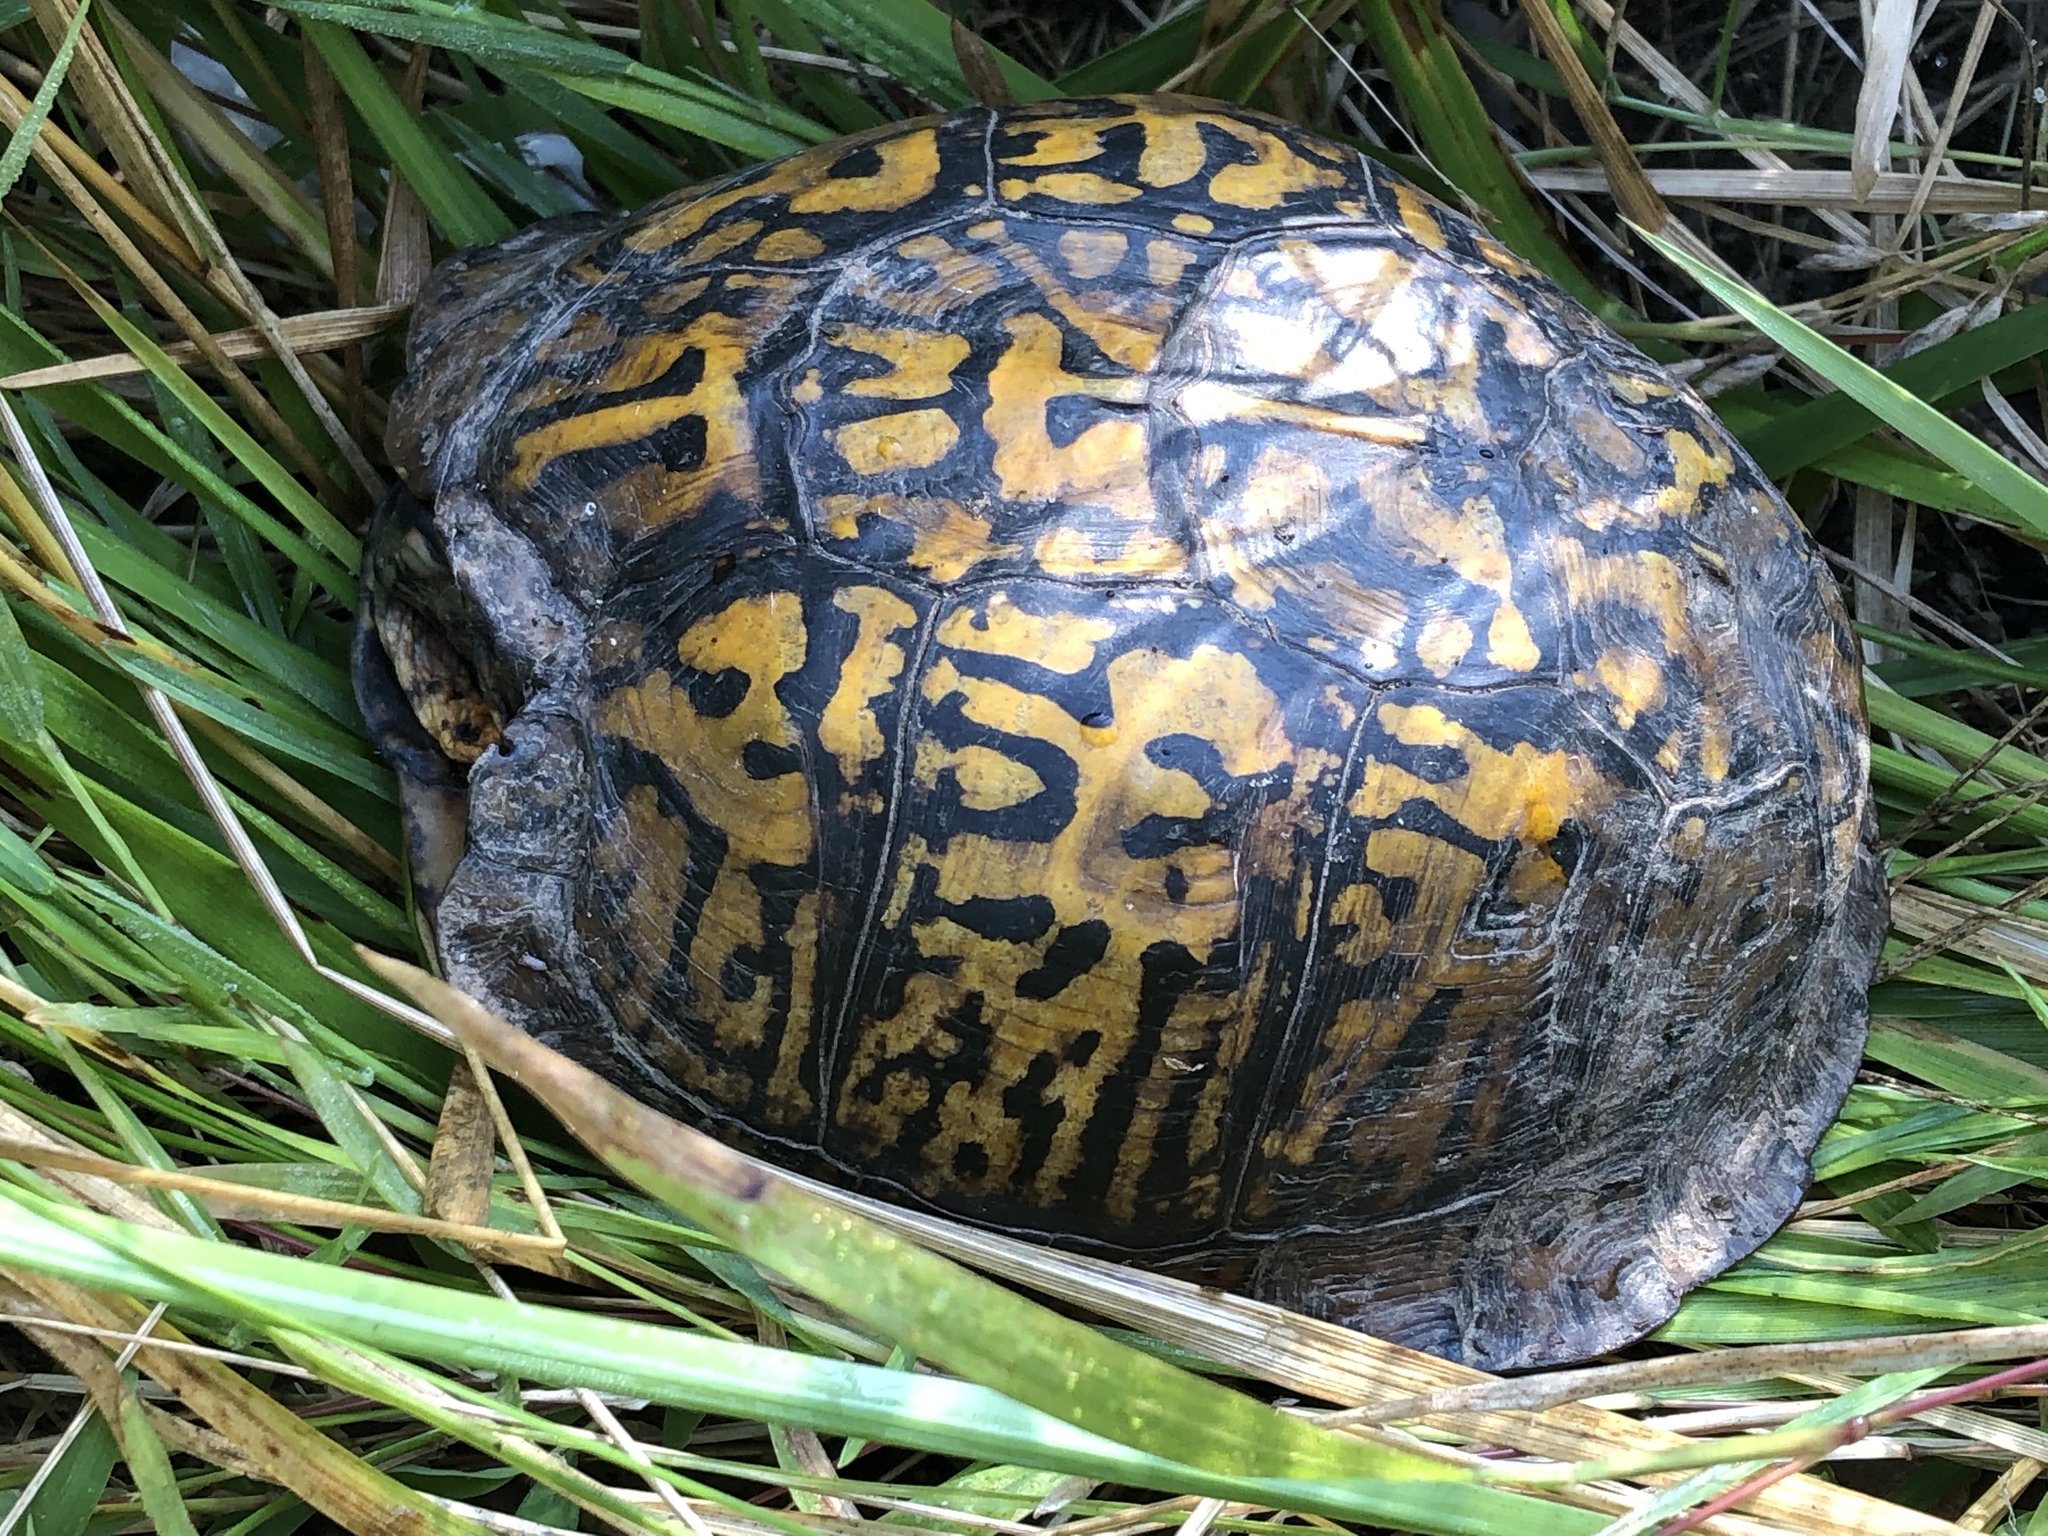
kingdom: Animalia
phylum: Chordata
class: Testudines
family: Emydidae
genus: Terrapene
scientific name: Terrapene carolina
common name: Common box turtle
